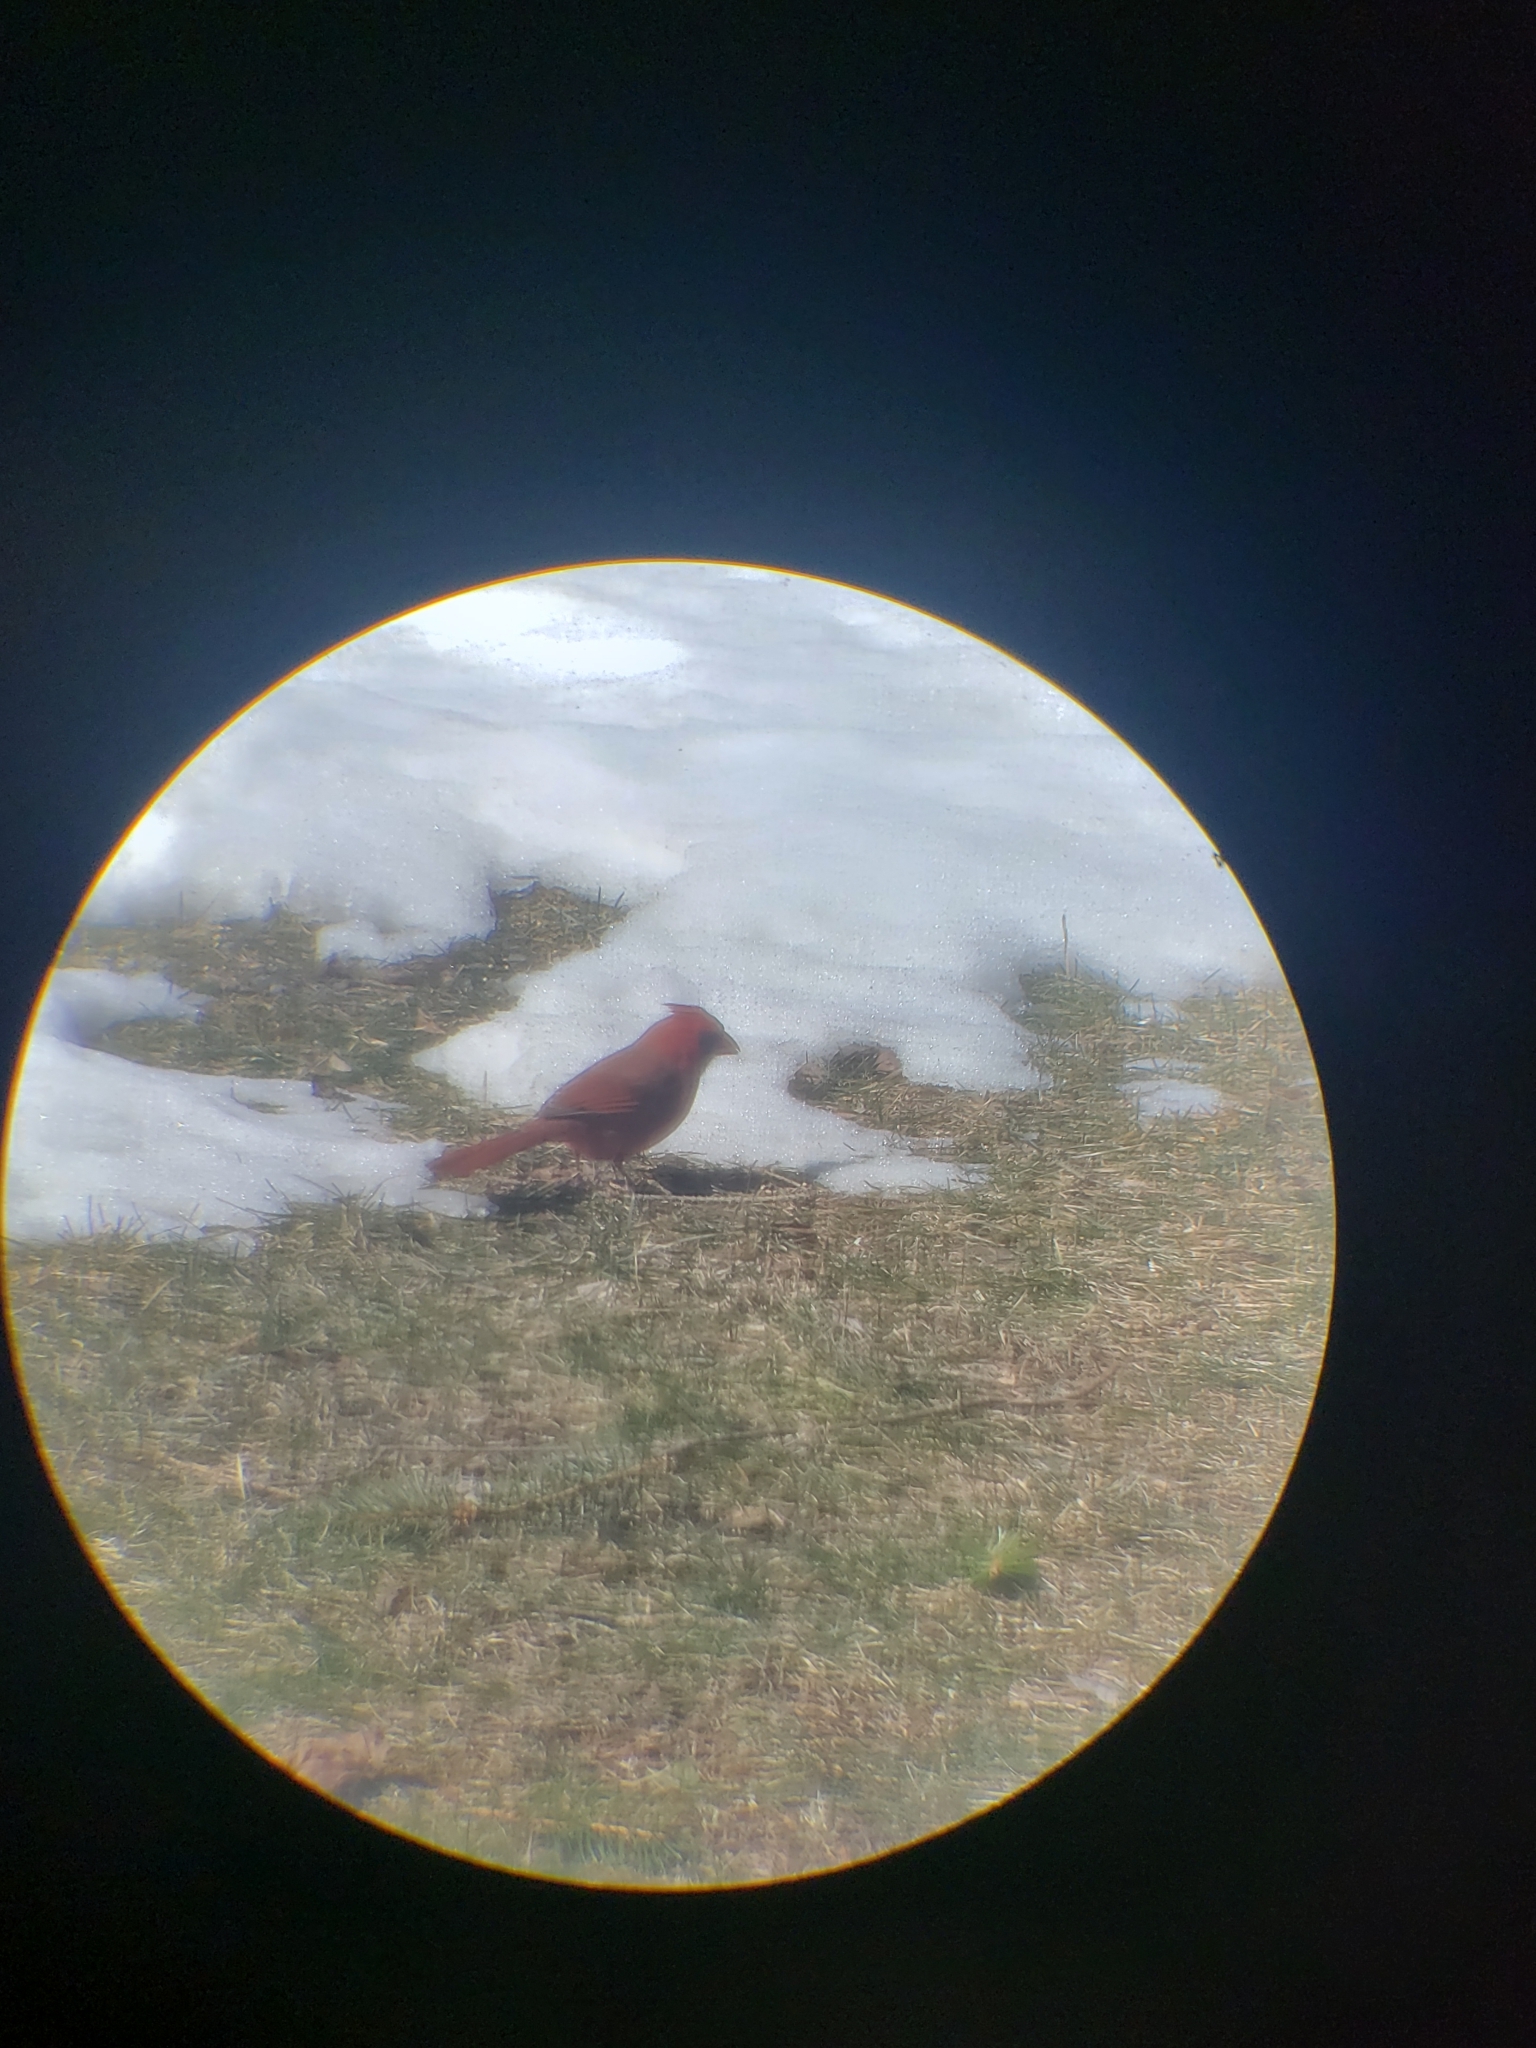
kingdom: Animalia
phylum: Chordata
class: Aves
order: Passeriformes
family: Cardinalidae
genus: Cardinalis
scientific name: Cardinalis cardinalis
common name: Northern cardinal
